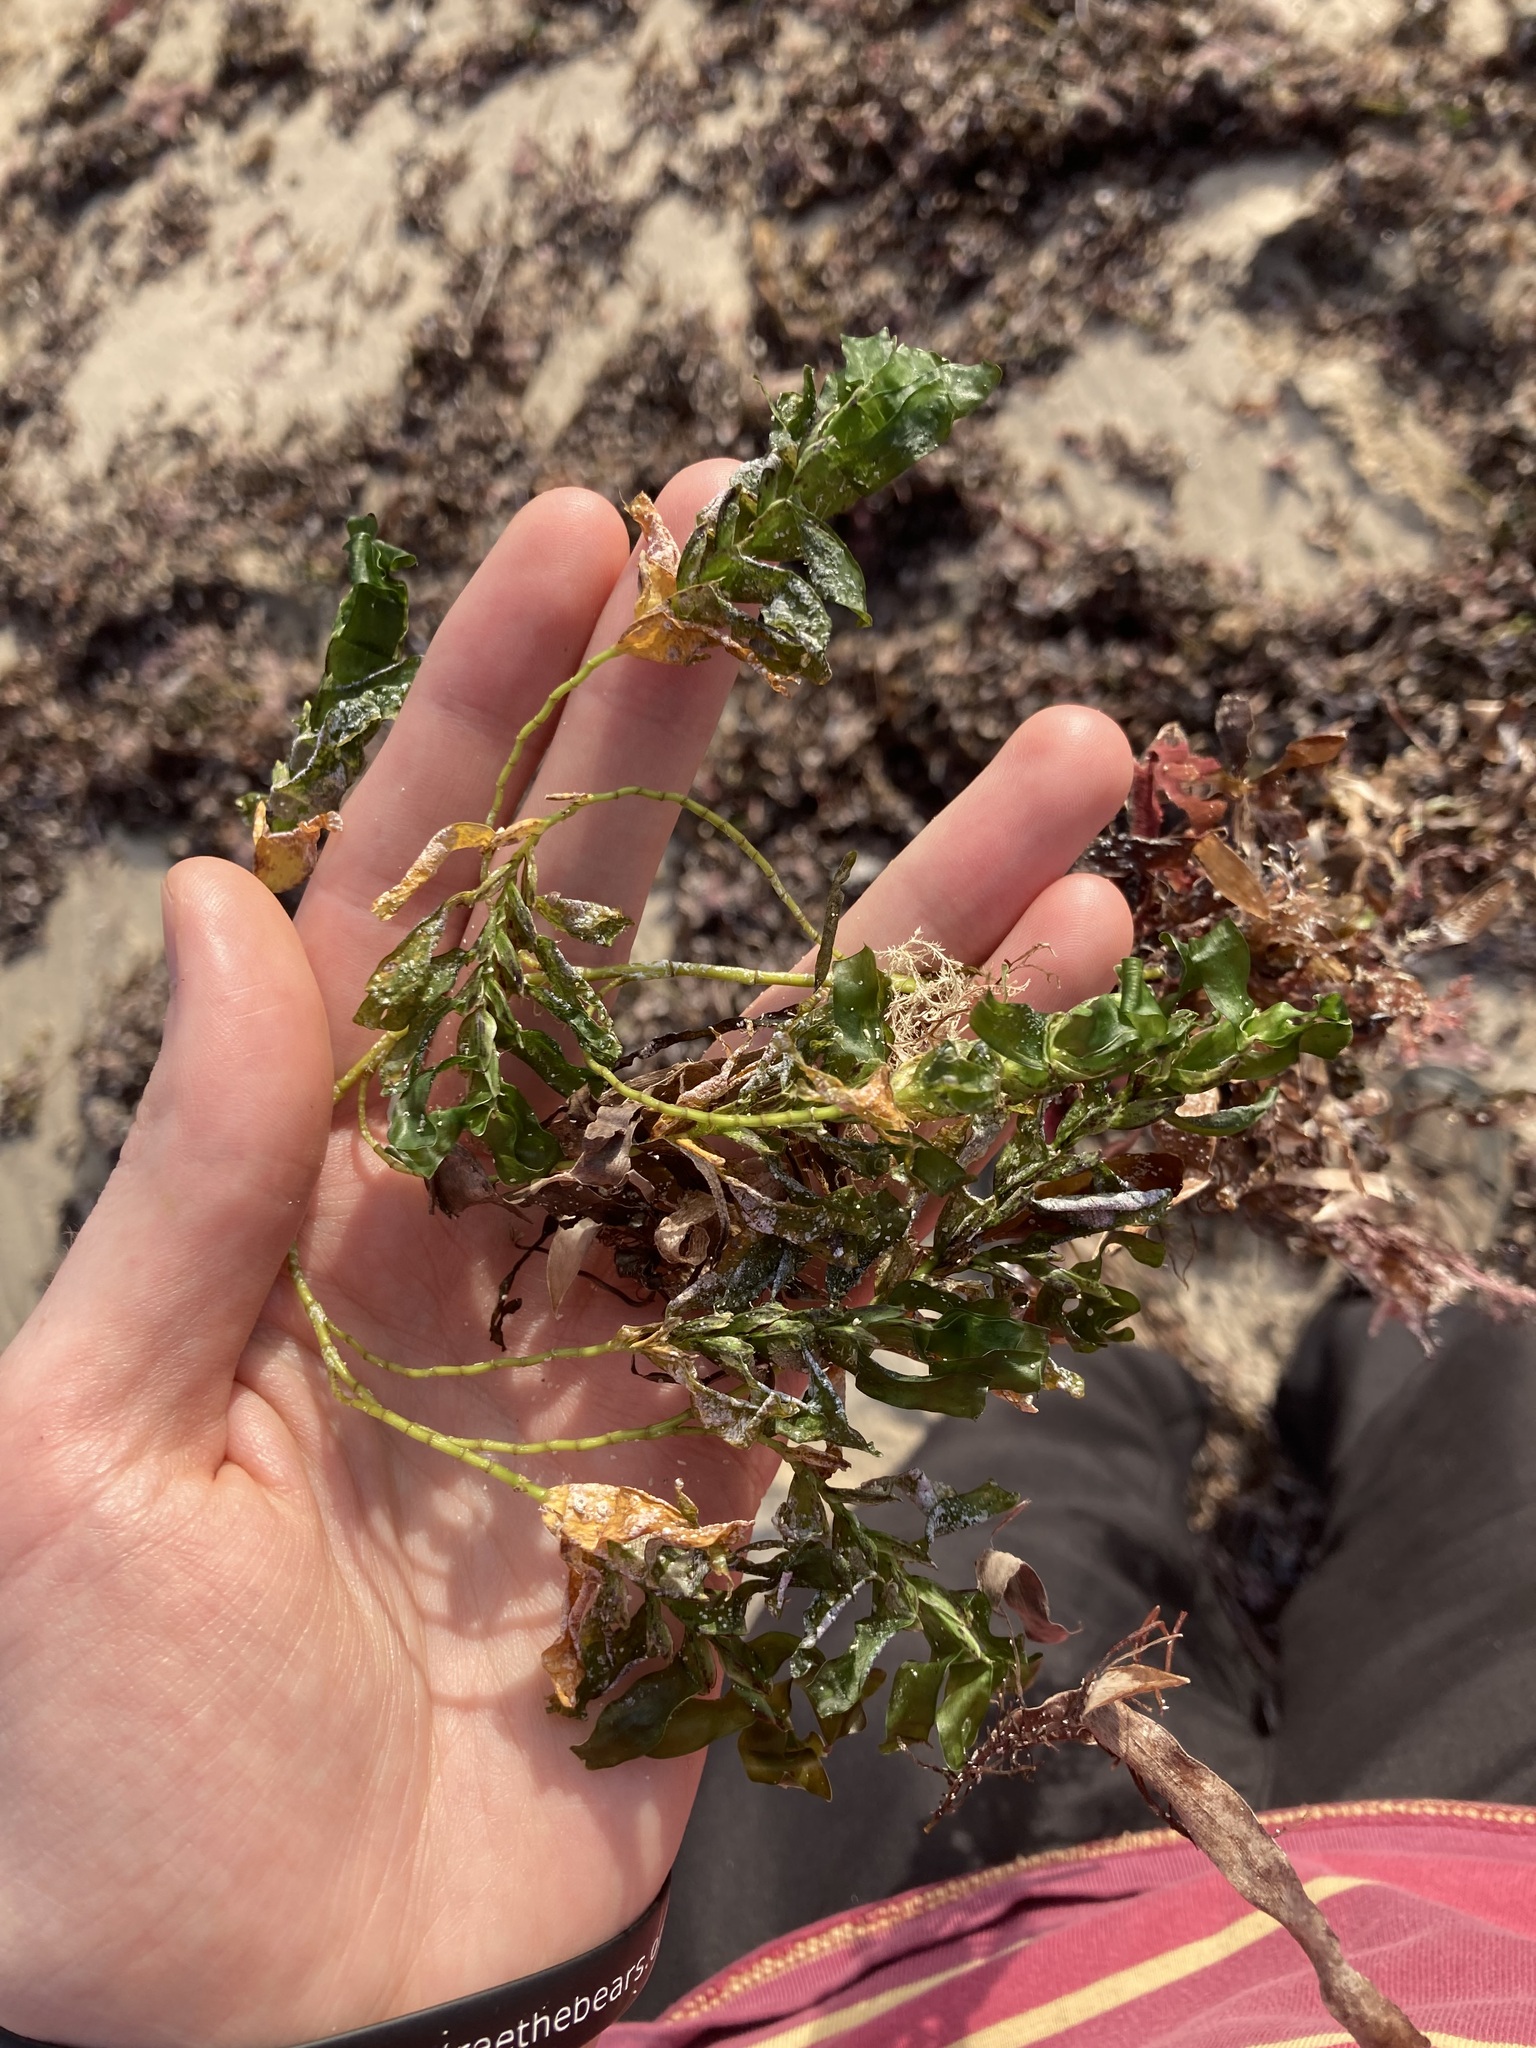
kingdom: Plantae
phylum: Tracheophyta
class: Liliopsida
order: Alismatales
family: Cymodoceaceae
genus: Amphibolis
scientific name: Amphibolis antarctica
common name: Species code: aa
